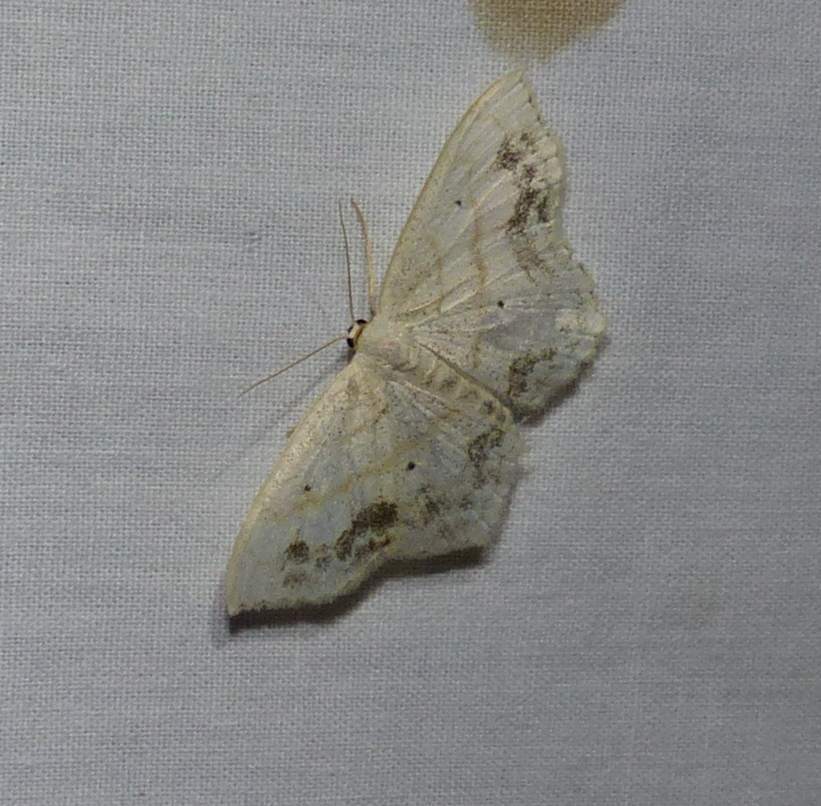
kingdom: Animalia
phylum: Arthropoda
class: Insecta
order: Lepidoptera
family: Geometridae
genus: Scopula
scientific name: Scopula limboundata
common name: Large lace border
